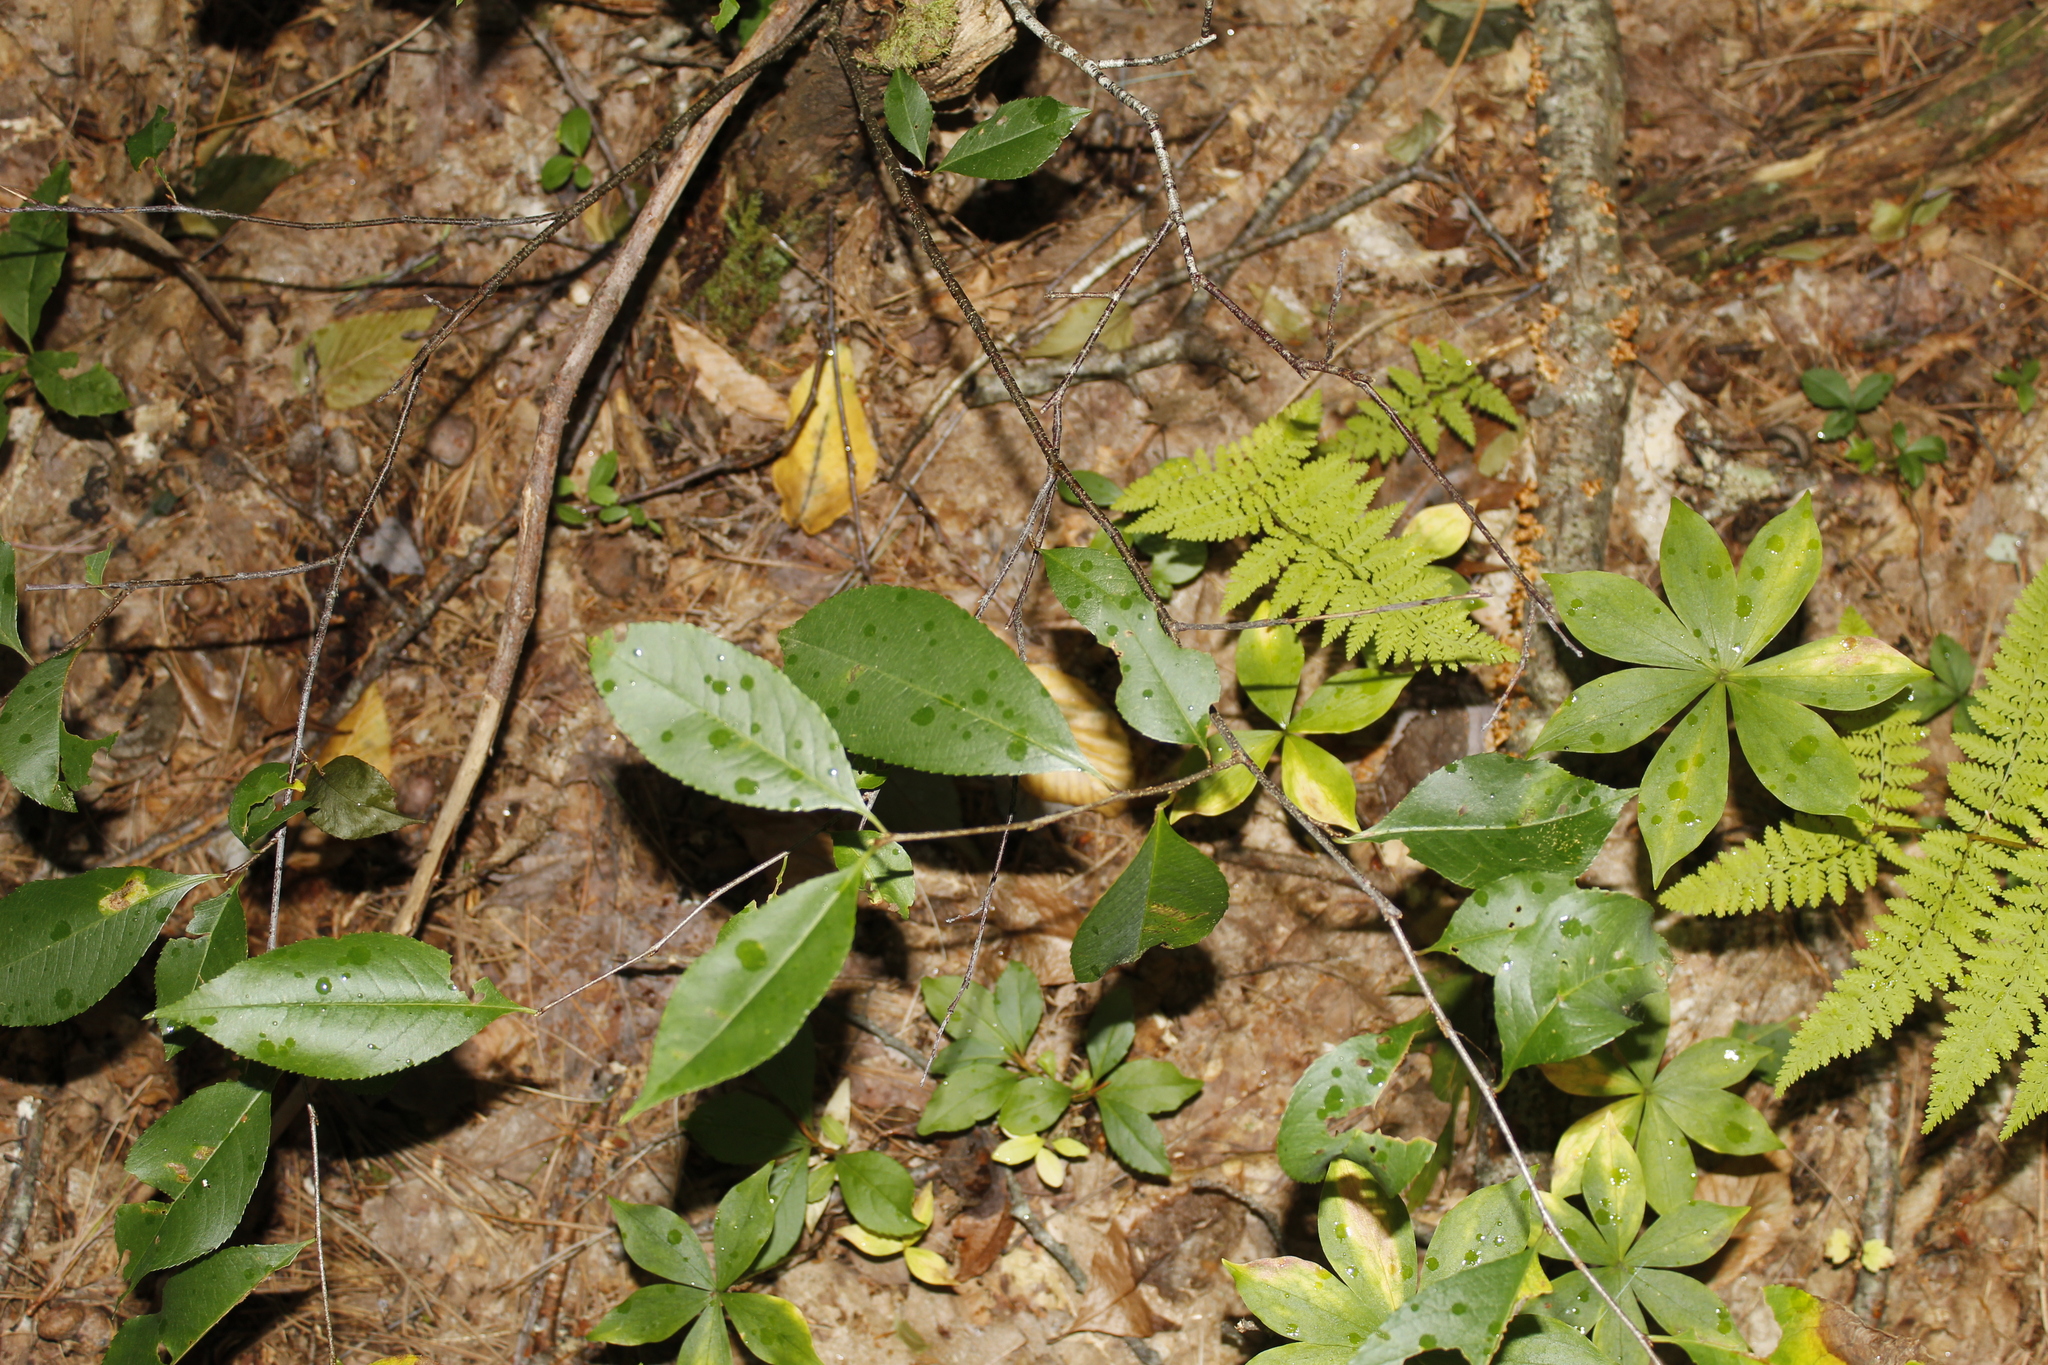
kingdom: Plantae
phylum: Tracheophyta
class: Magnoliopsida
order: Rosales
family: Rosaceae
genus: Prunus
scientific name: Prunus serotina
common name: Black cherry
